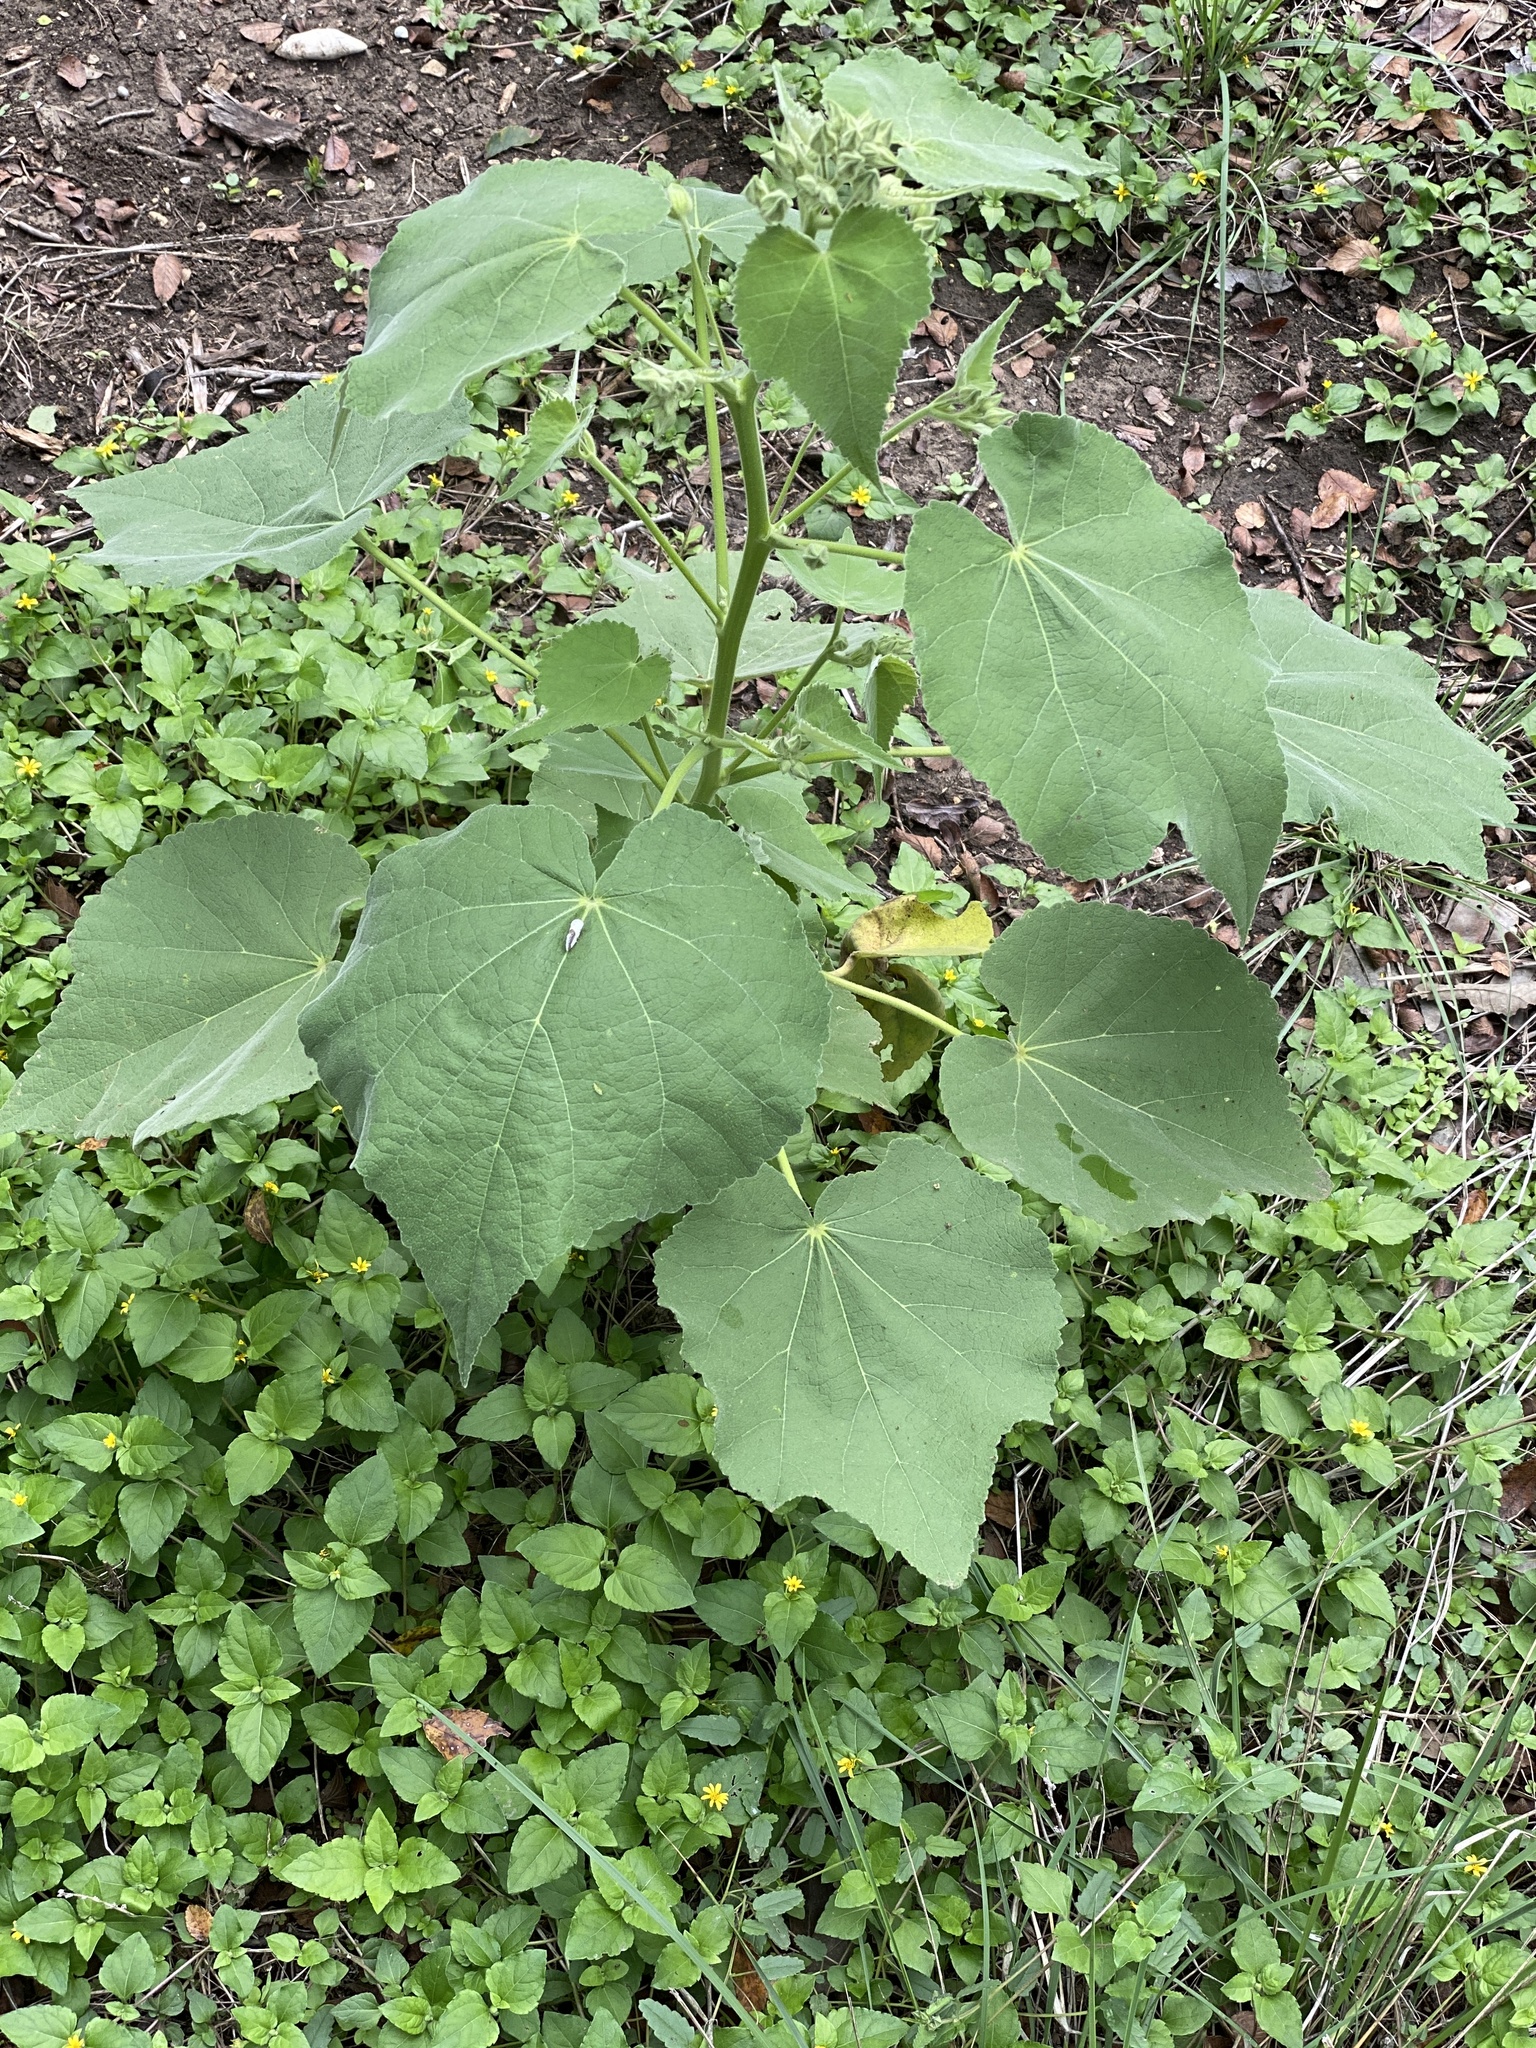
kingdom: Plantae
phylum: Tracheophyta
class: Magnoliopsida
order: Malvales
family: Malvaceae
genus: Allowissadula
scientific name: Allowissadula holosericea
